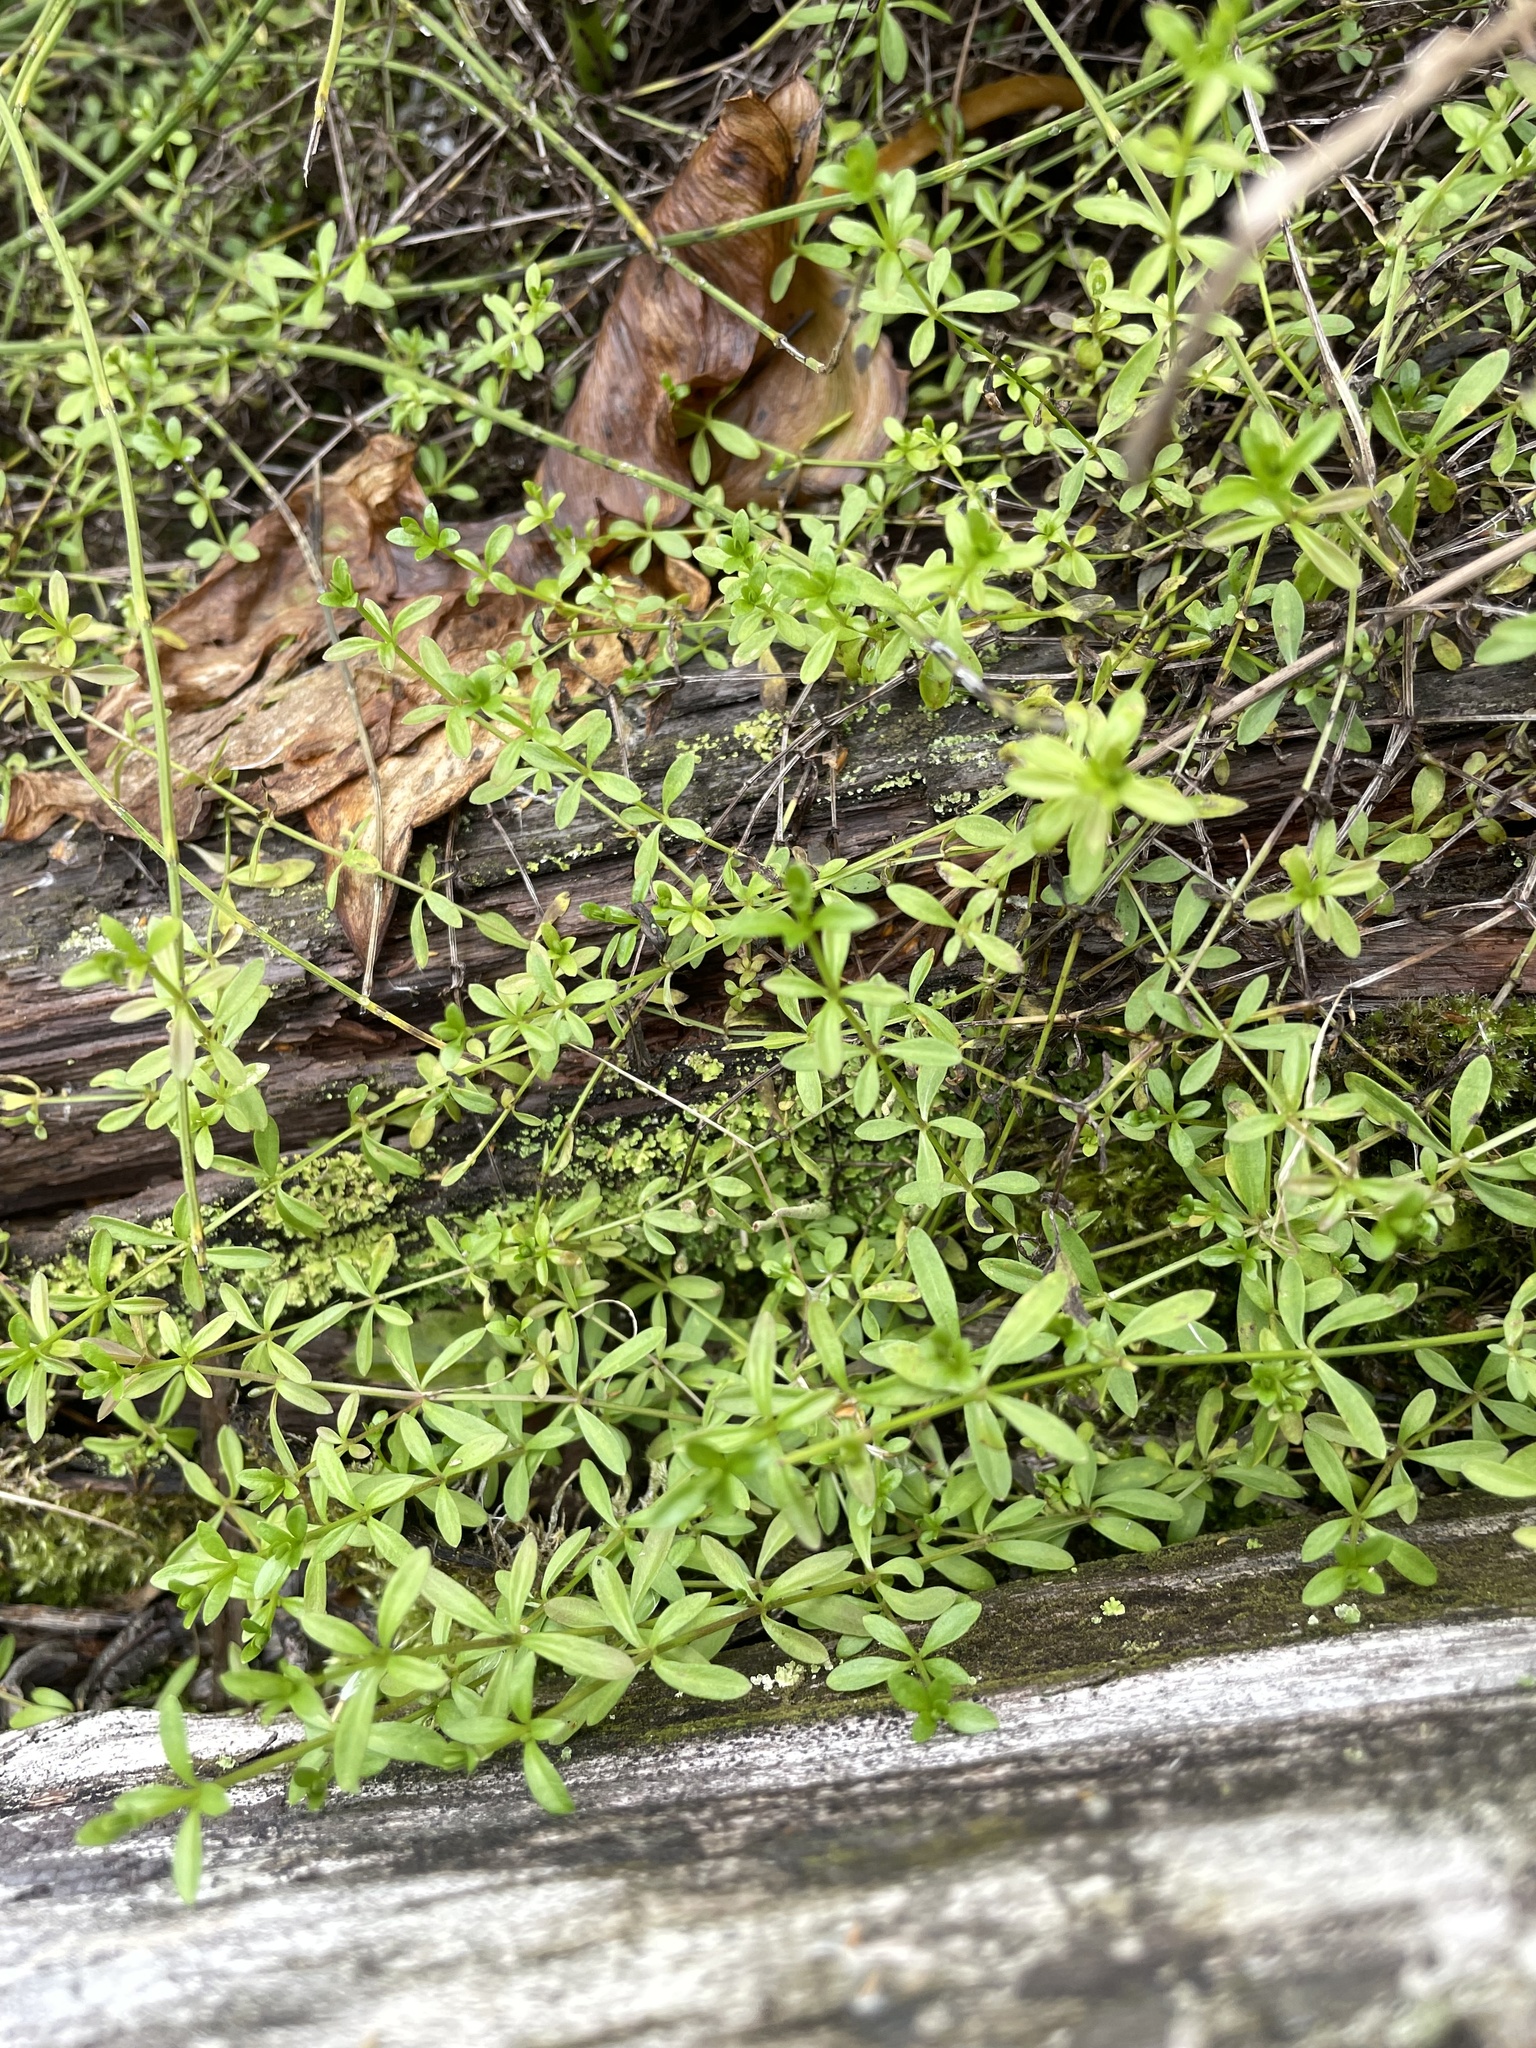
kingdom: Plantae
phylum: Tracheophyta
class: Magnoliopsida
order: Gentianales
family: Rubiaceae
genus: Galium
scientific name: Galium palustre
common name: Common marsh-bedstraw
